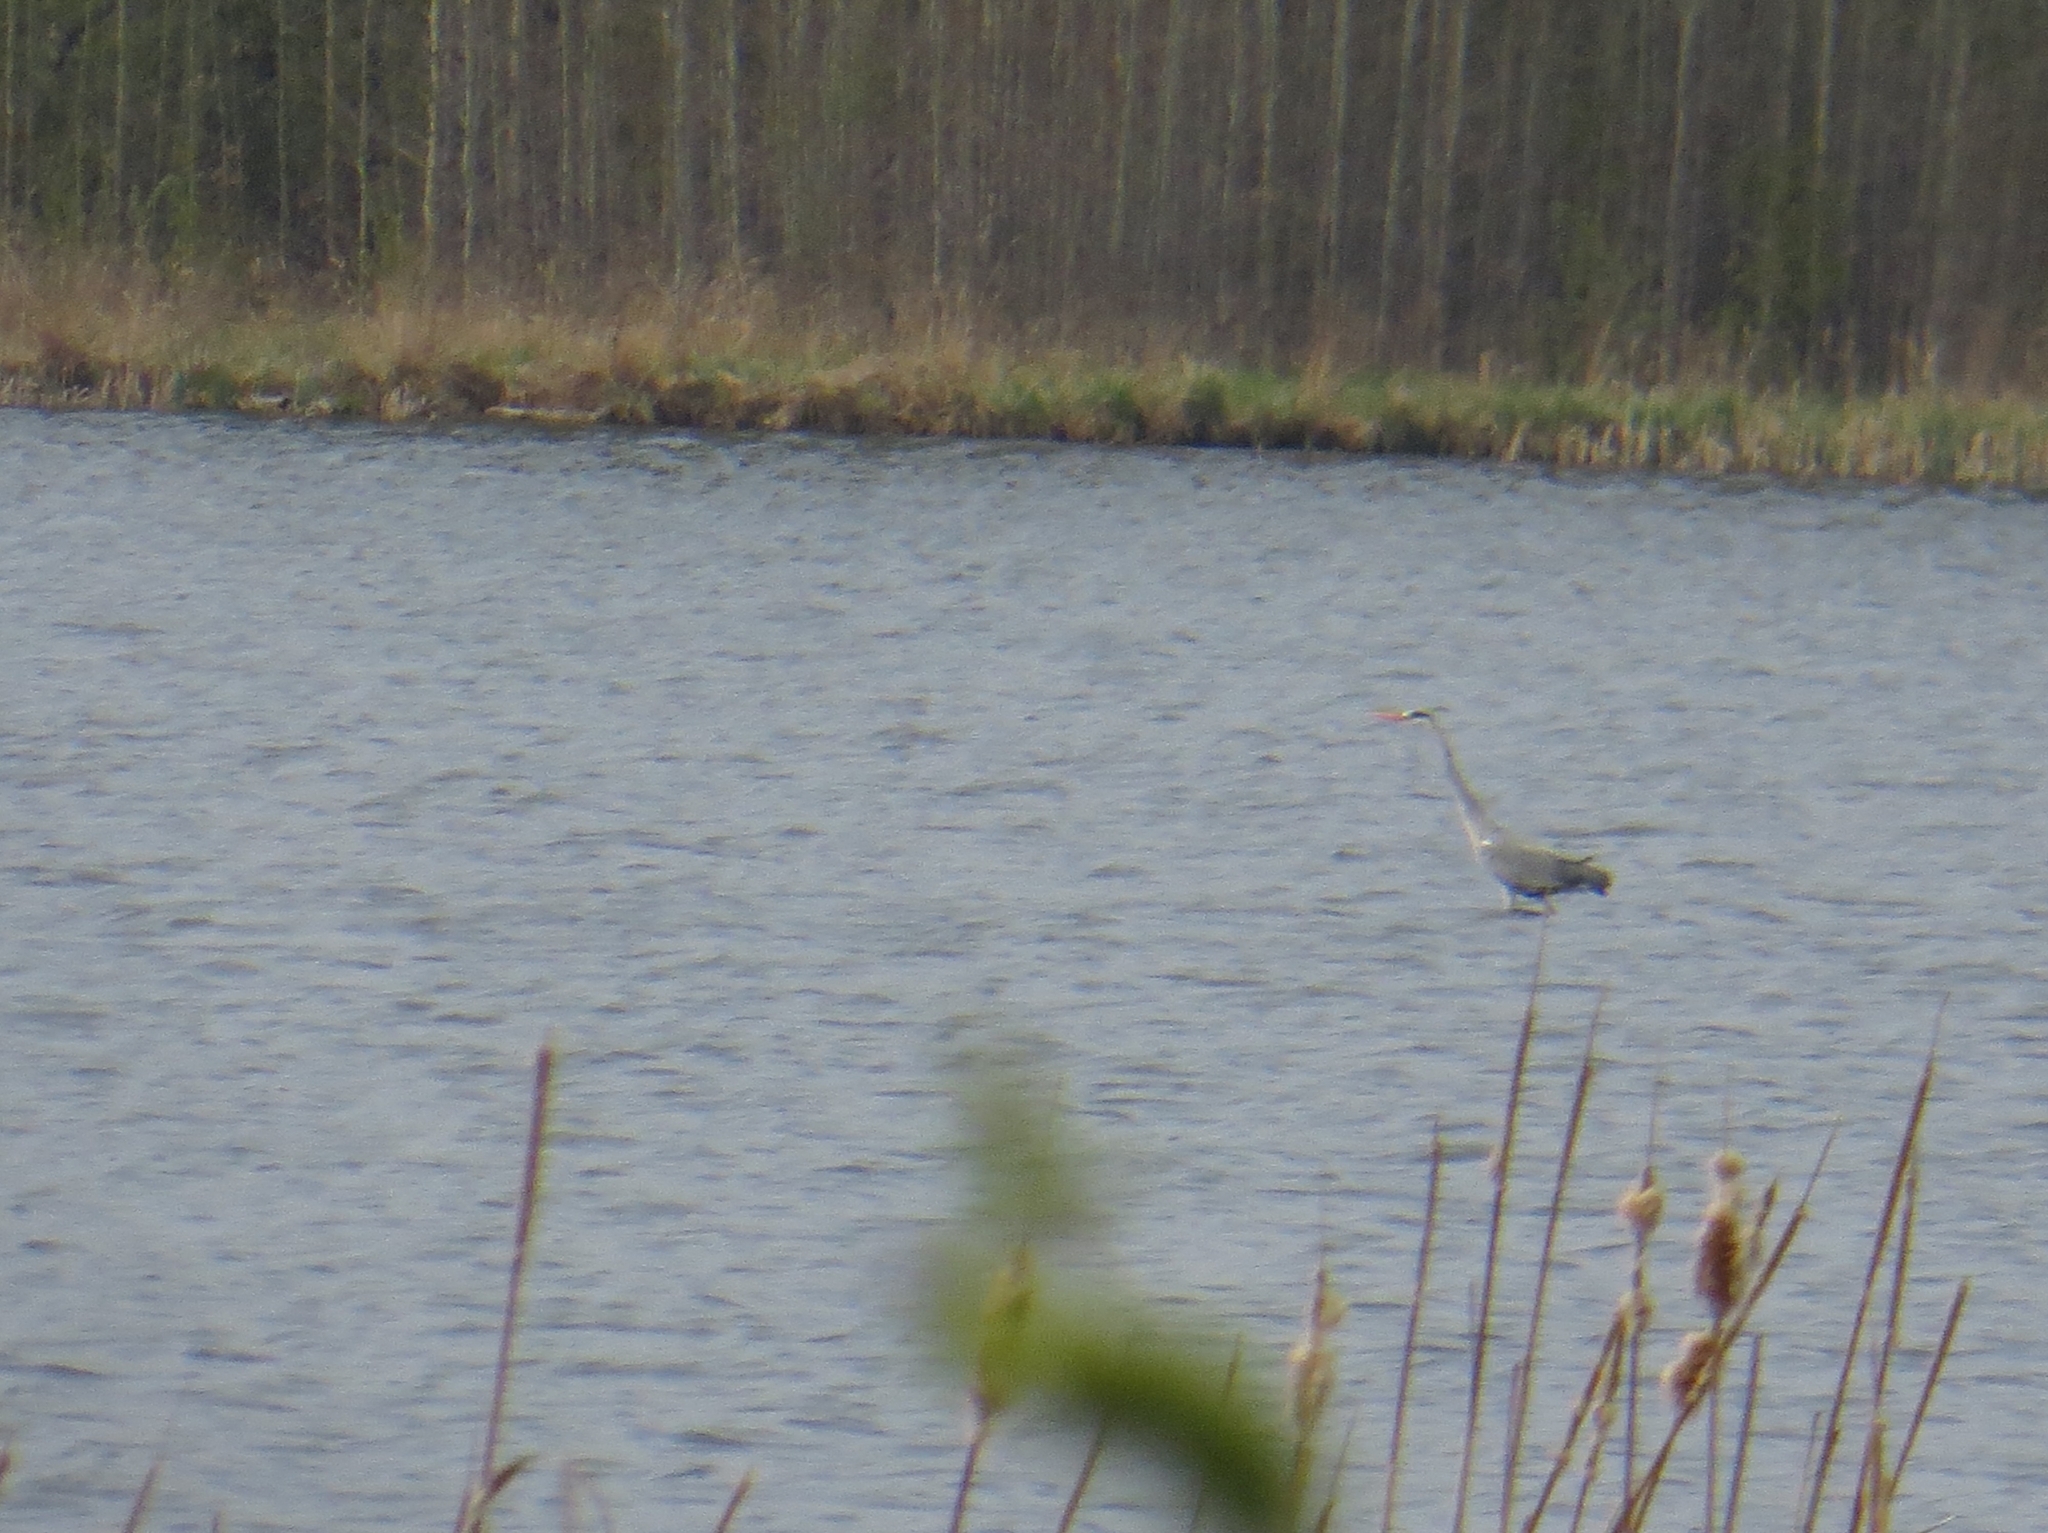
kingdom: Animalia
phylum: Chordata
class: Aves
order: Pelecaniformes
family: Ardeidae
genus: Ardea
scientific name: Ardea cinerea
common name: Grey heron
